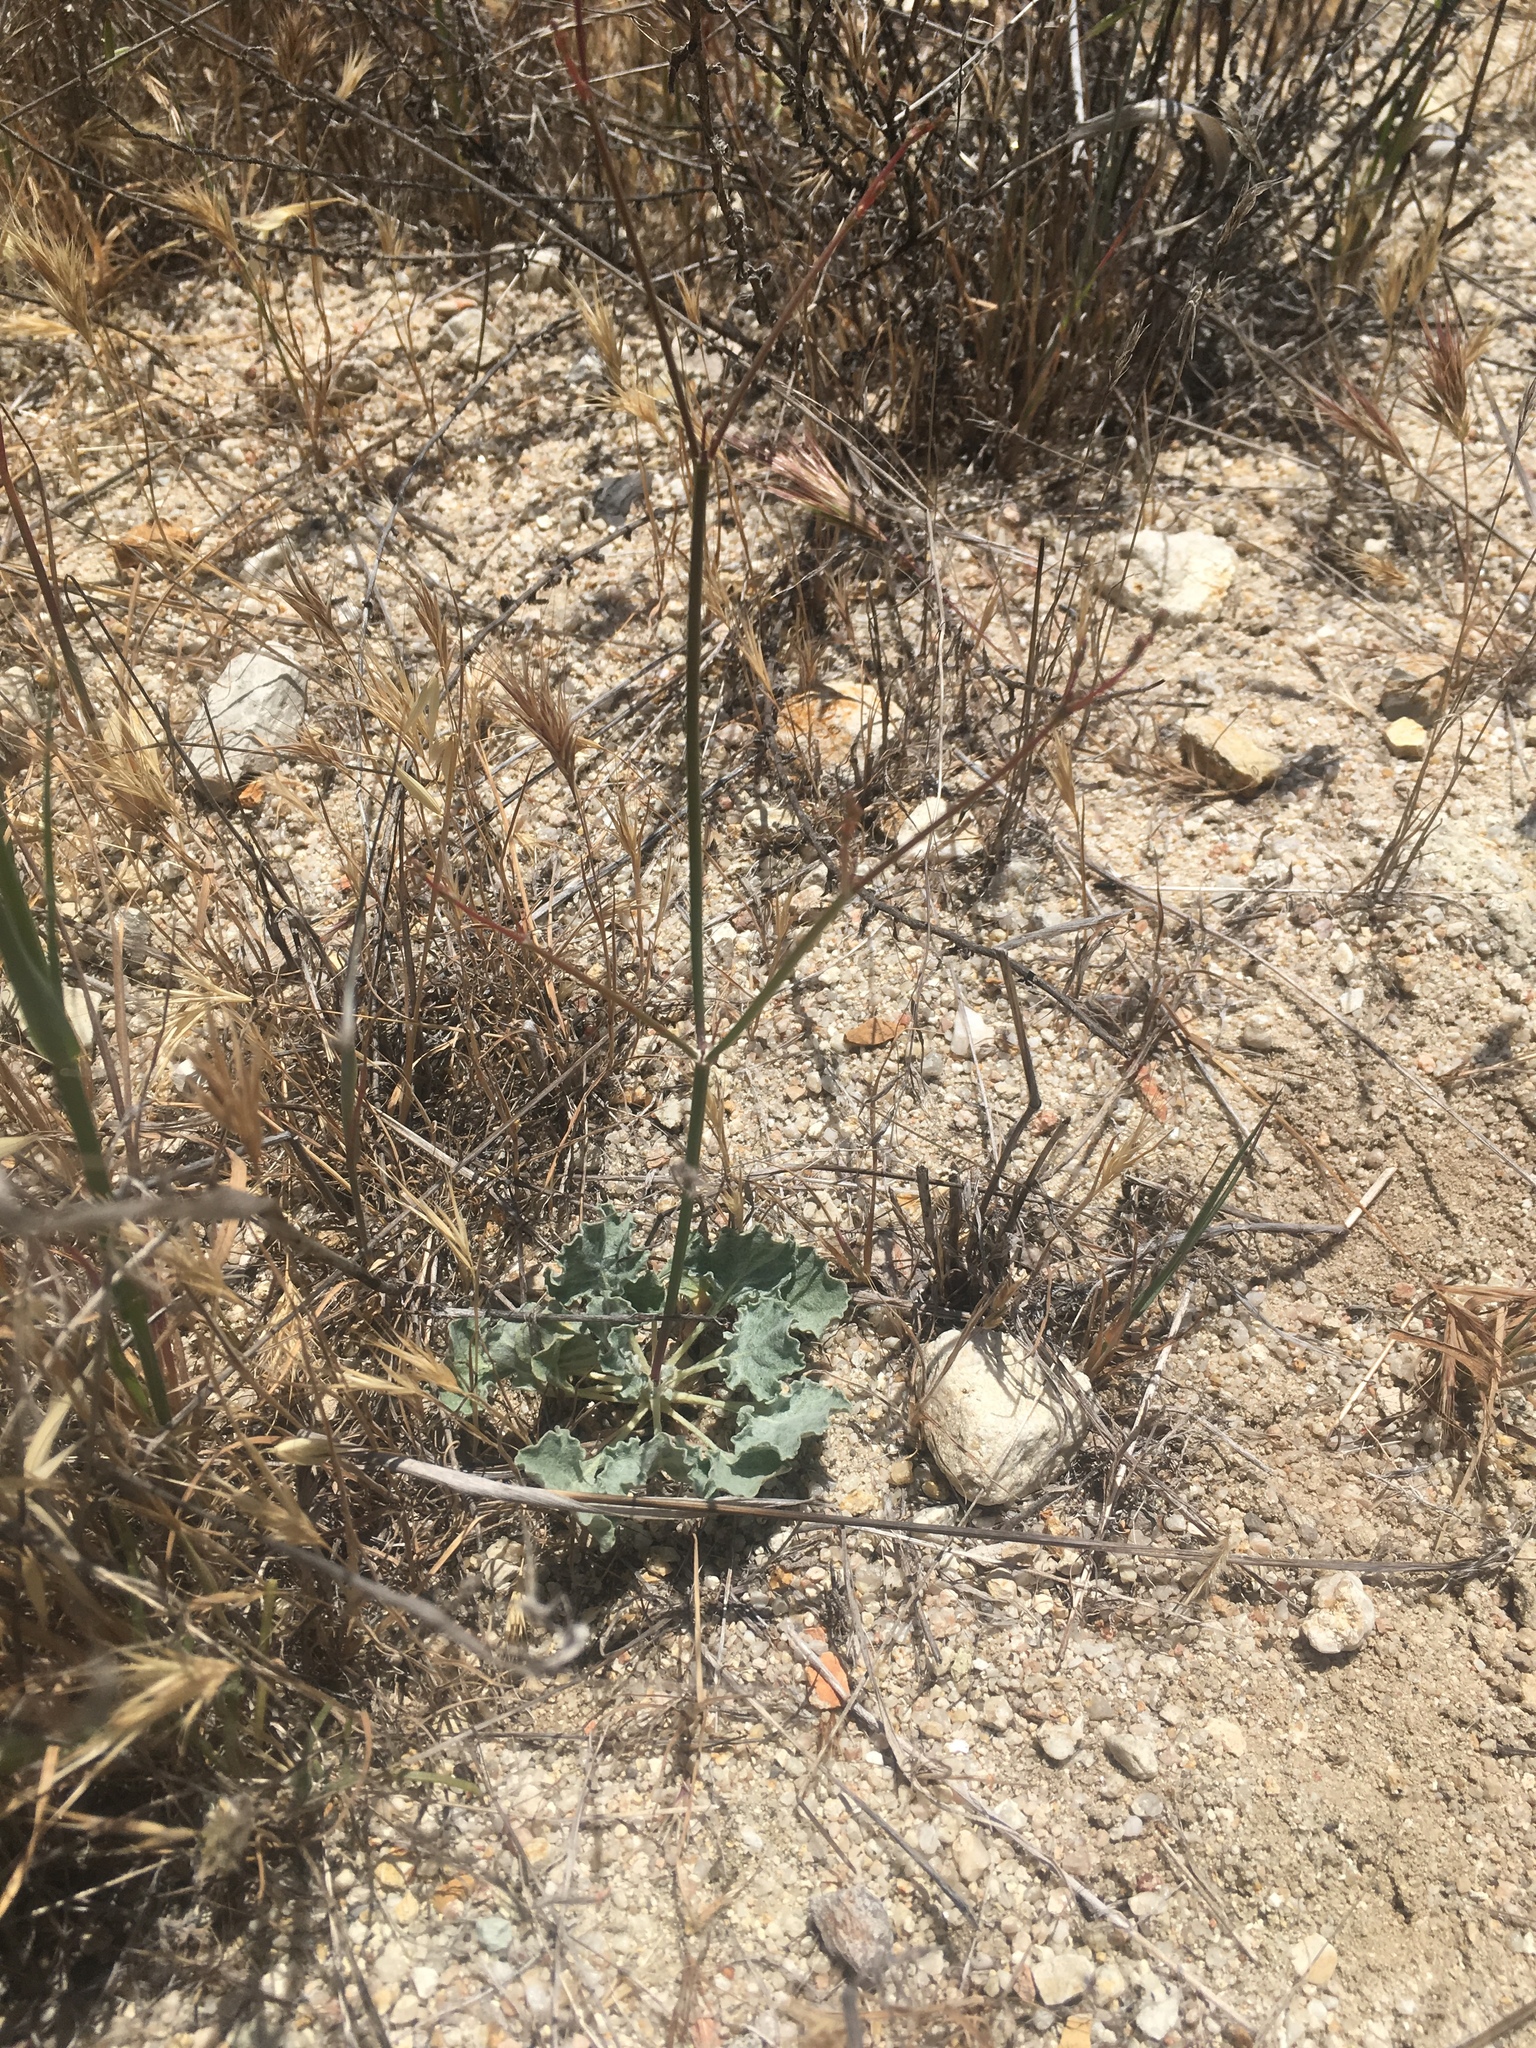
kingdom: Plantae
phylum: Tracheophyta
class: Magnoliopsida
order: Caryophyllales
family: Polygonaceae
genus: Eriogonum
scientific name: Eriogonum elegans
